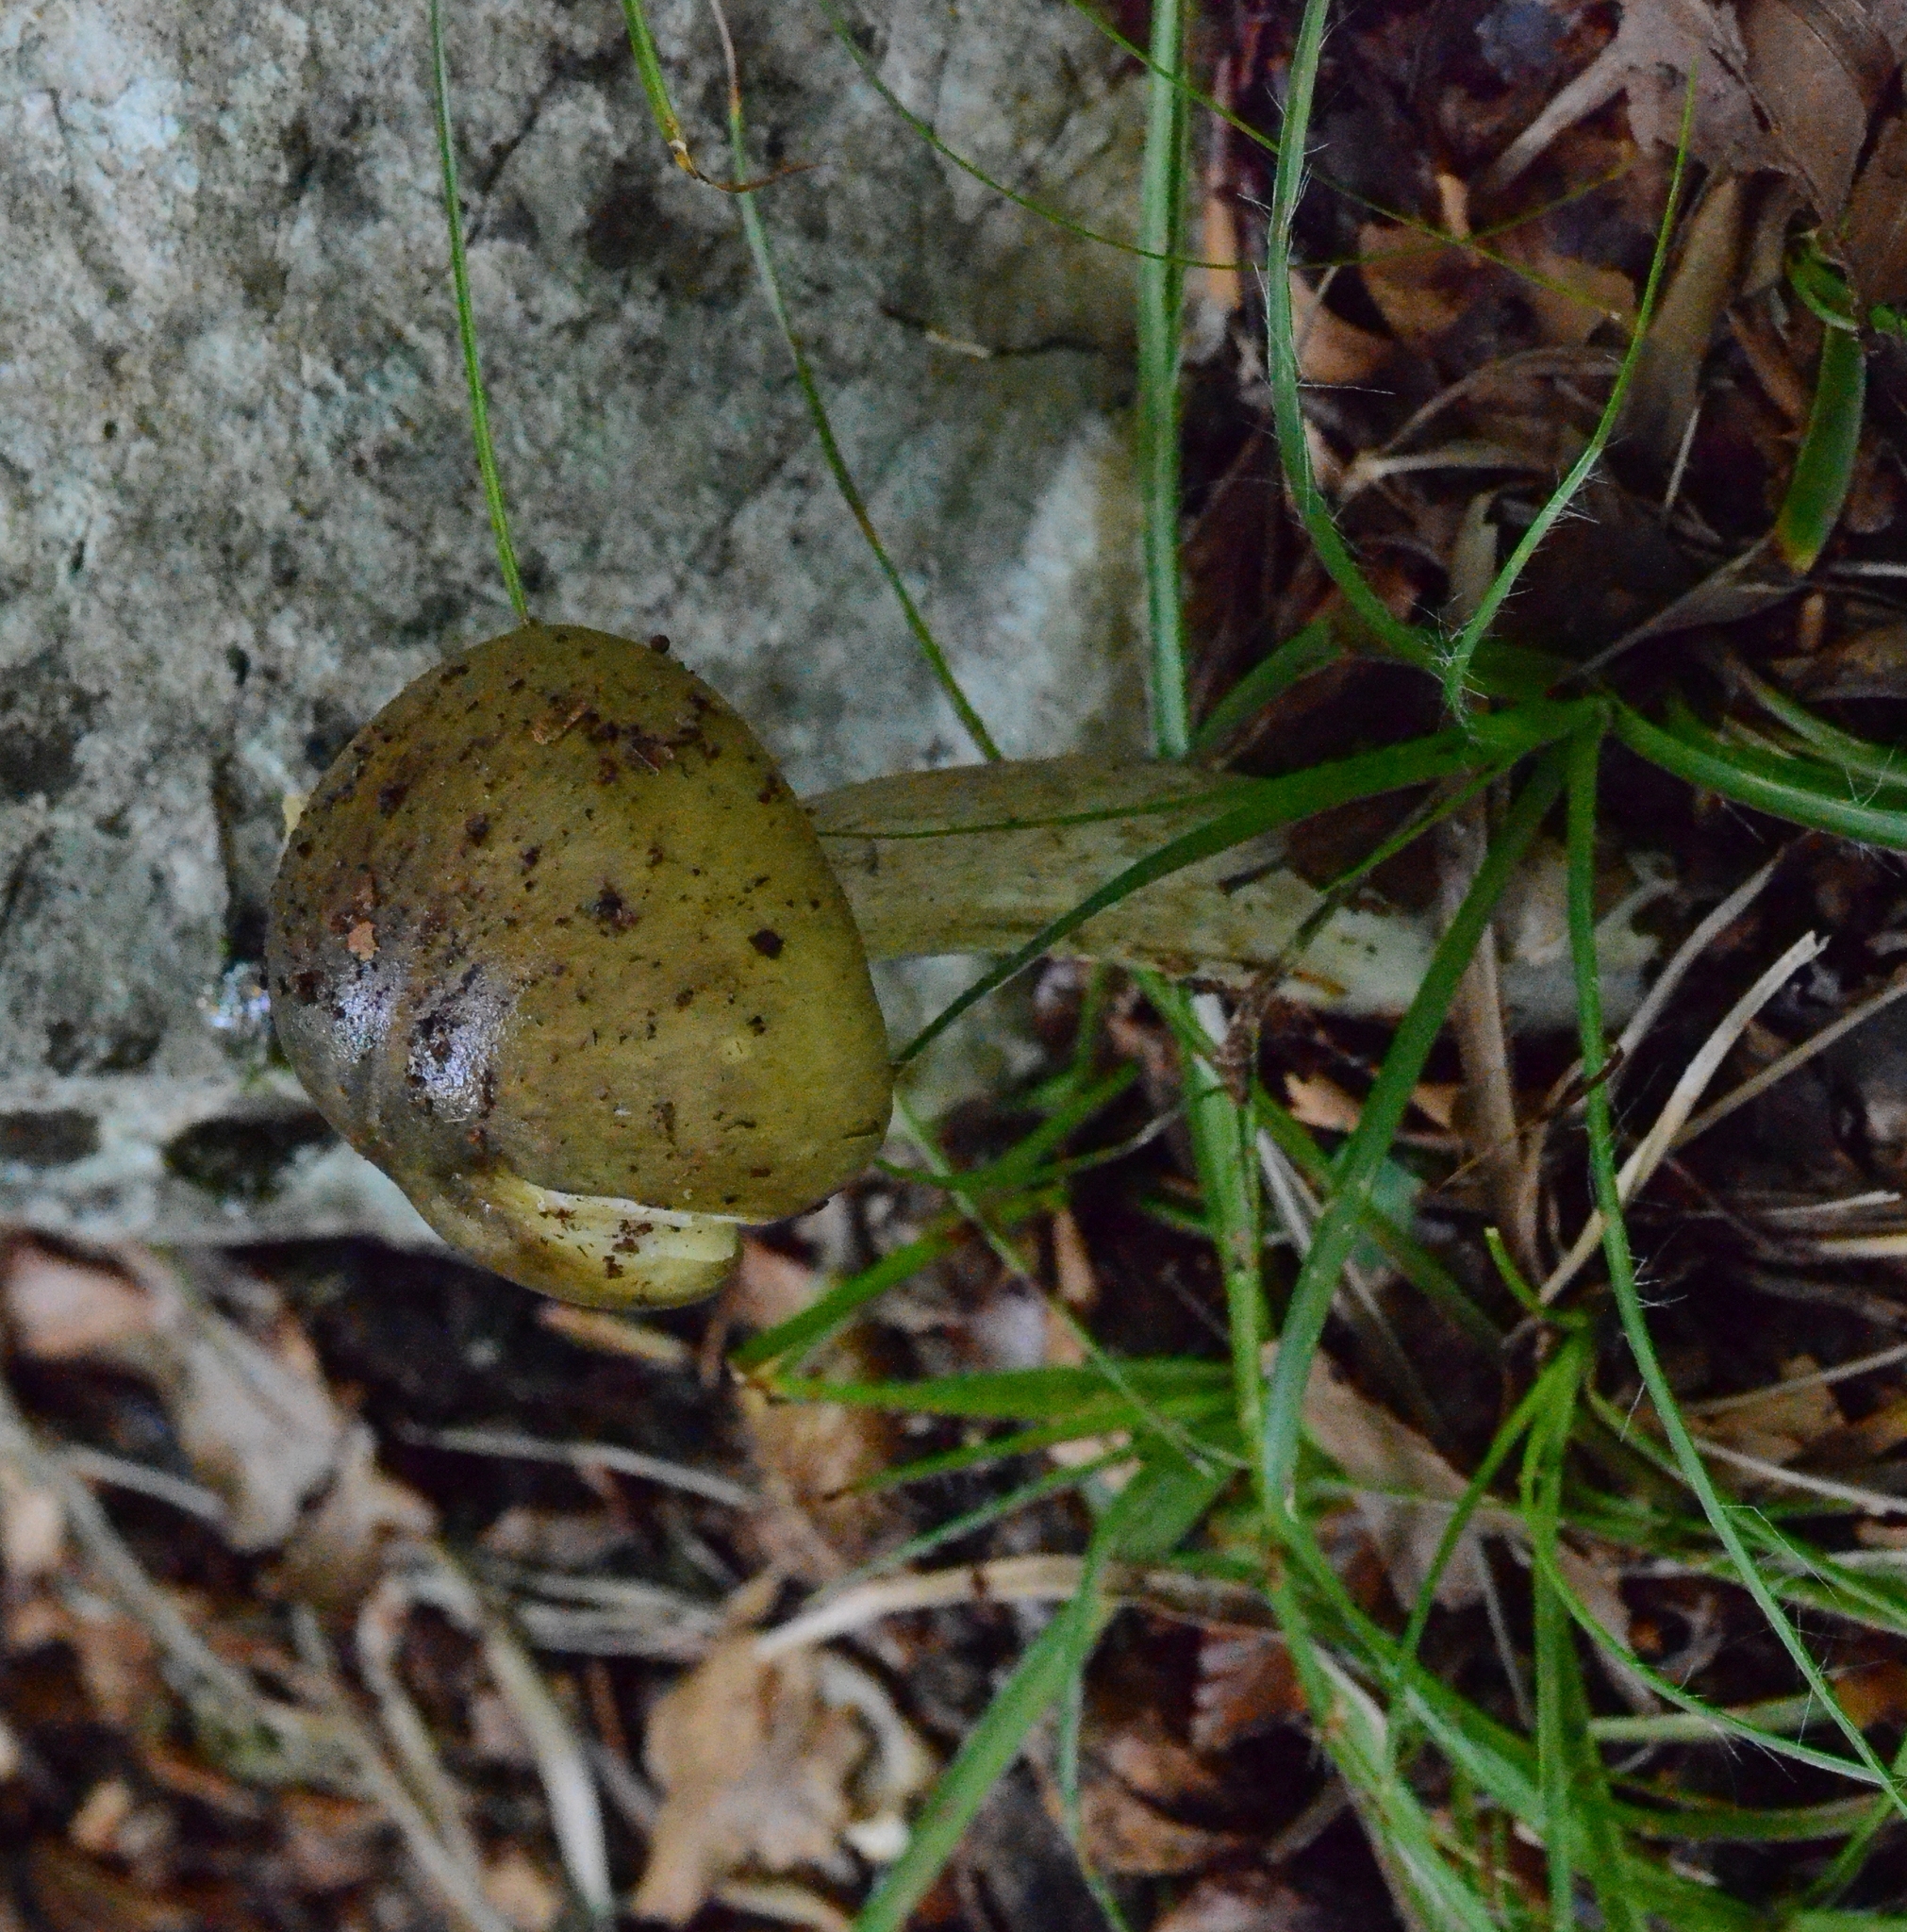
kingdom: Fungi
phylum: Basidiomycota
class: Agaricomycetes
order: Agaricales
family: Amanitaceae
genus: Amanita
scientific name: Amanita phalloides
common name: Death cap
